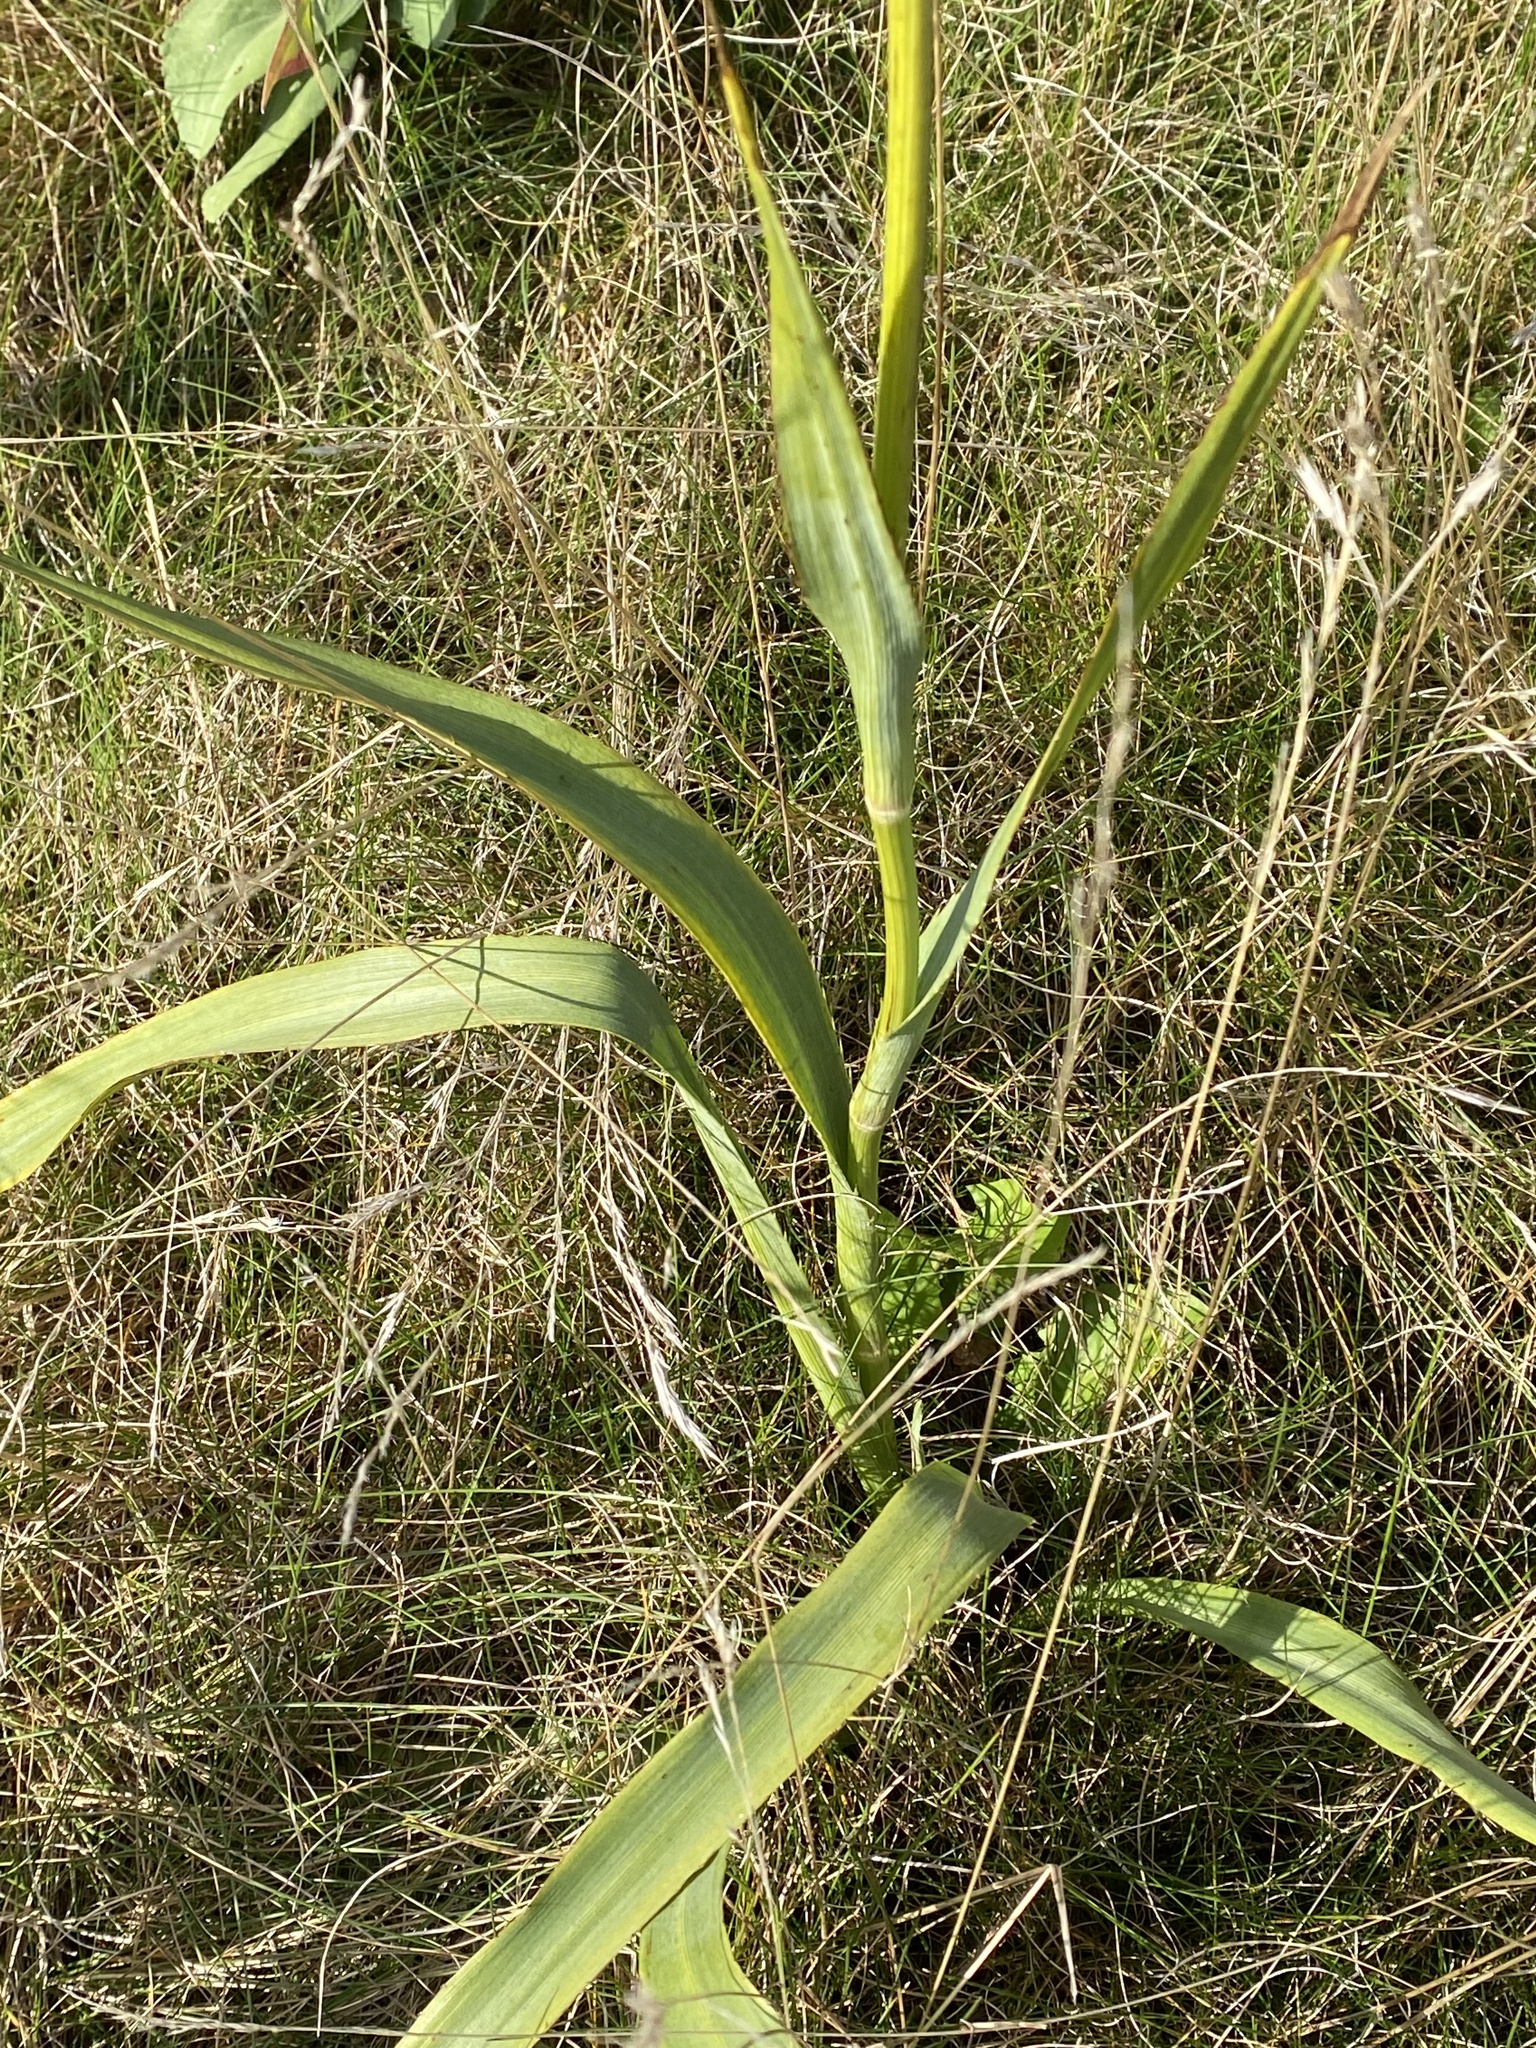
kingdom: Plantae
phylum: Tracheophyta
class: Magnoliopsida
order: Apiales
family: Apiaceae
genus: Eryngium
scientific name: Eryngium yuccifolium
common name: Button eryngo
